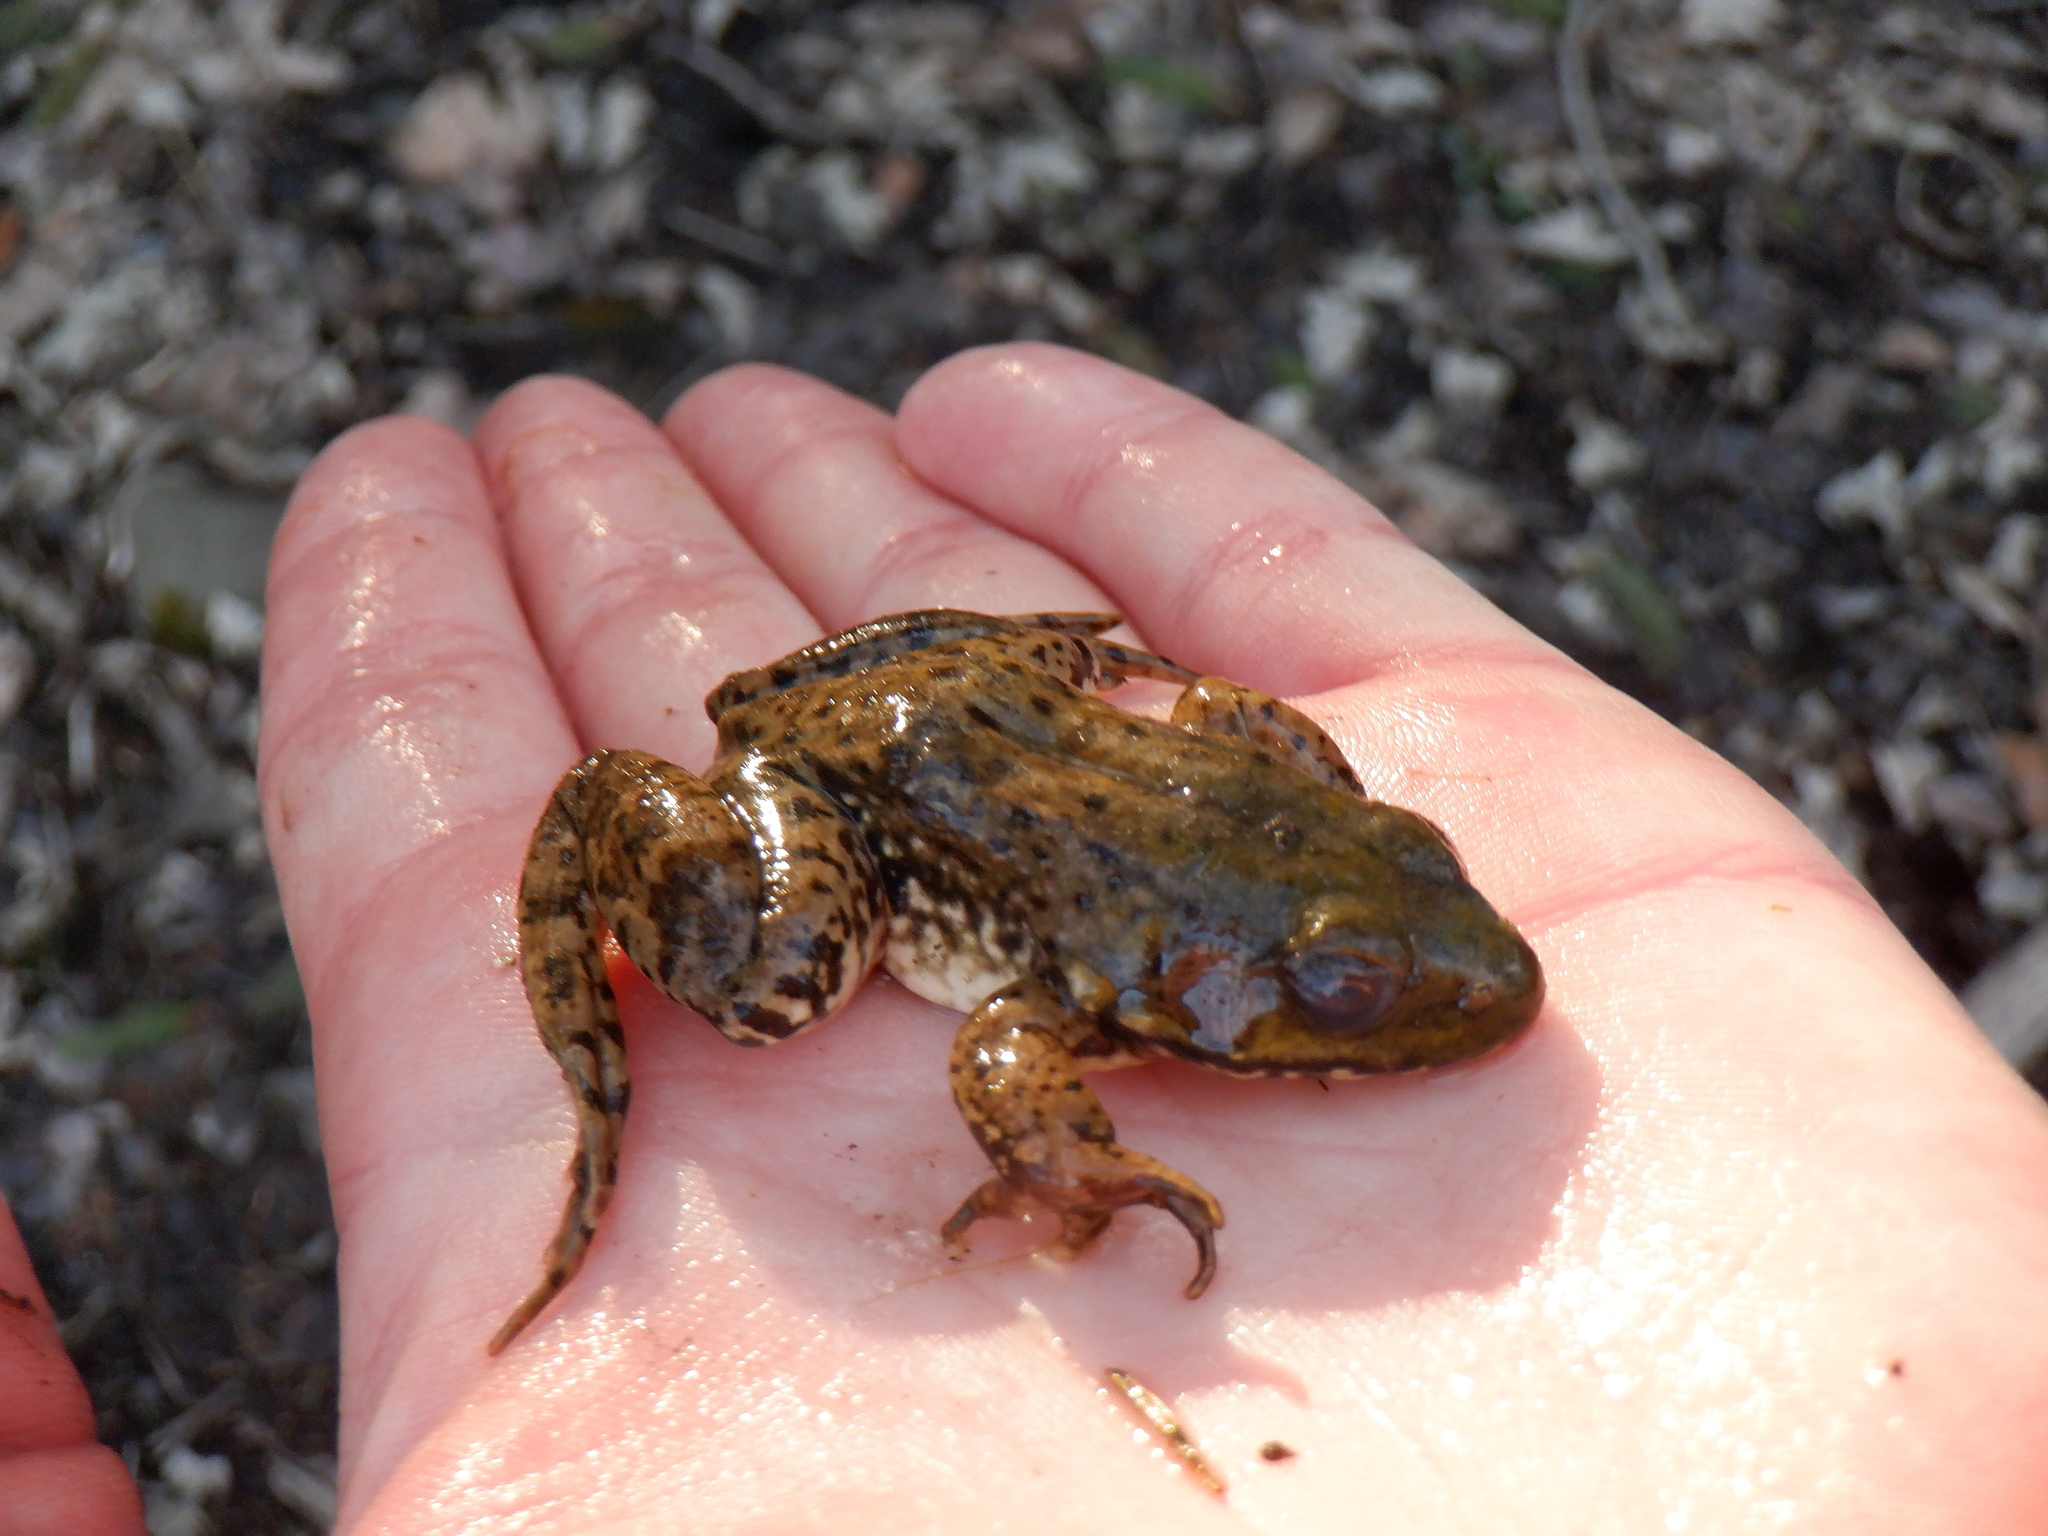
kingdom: Animalia
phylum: Chordata
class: Amphibia
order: Anura
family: Ranidae
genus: Lithobates
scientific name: Lithobates catesbeianus
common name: American bullfrog
